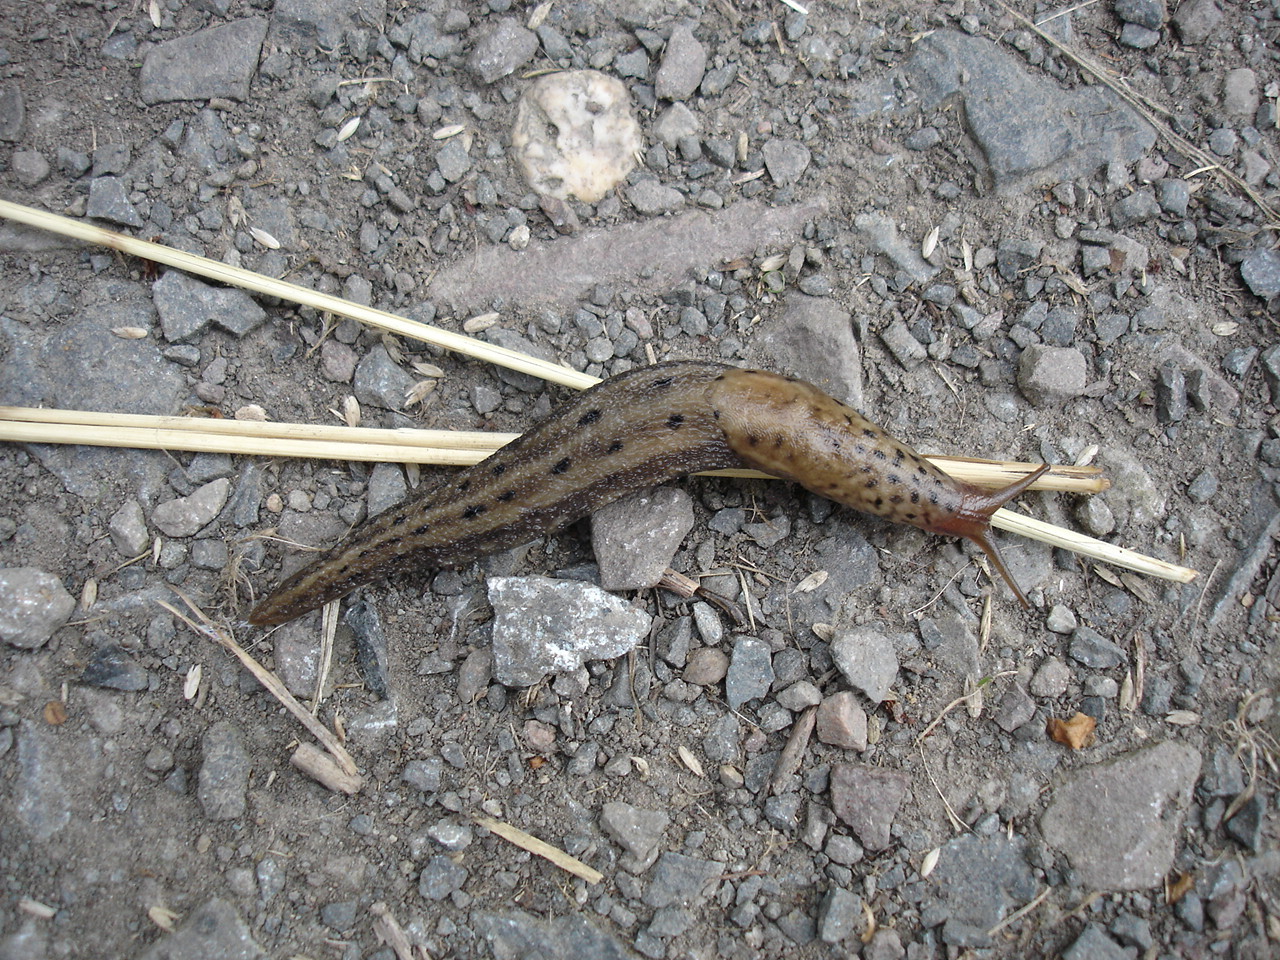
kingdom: Animalia
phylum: Mollusca
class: Gastropoda
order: Stylommatophora
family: Limacidae
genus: Limax
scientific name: Limax maximus
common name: Great grey slug
